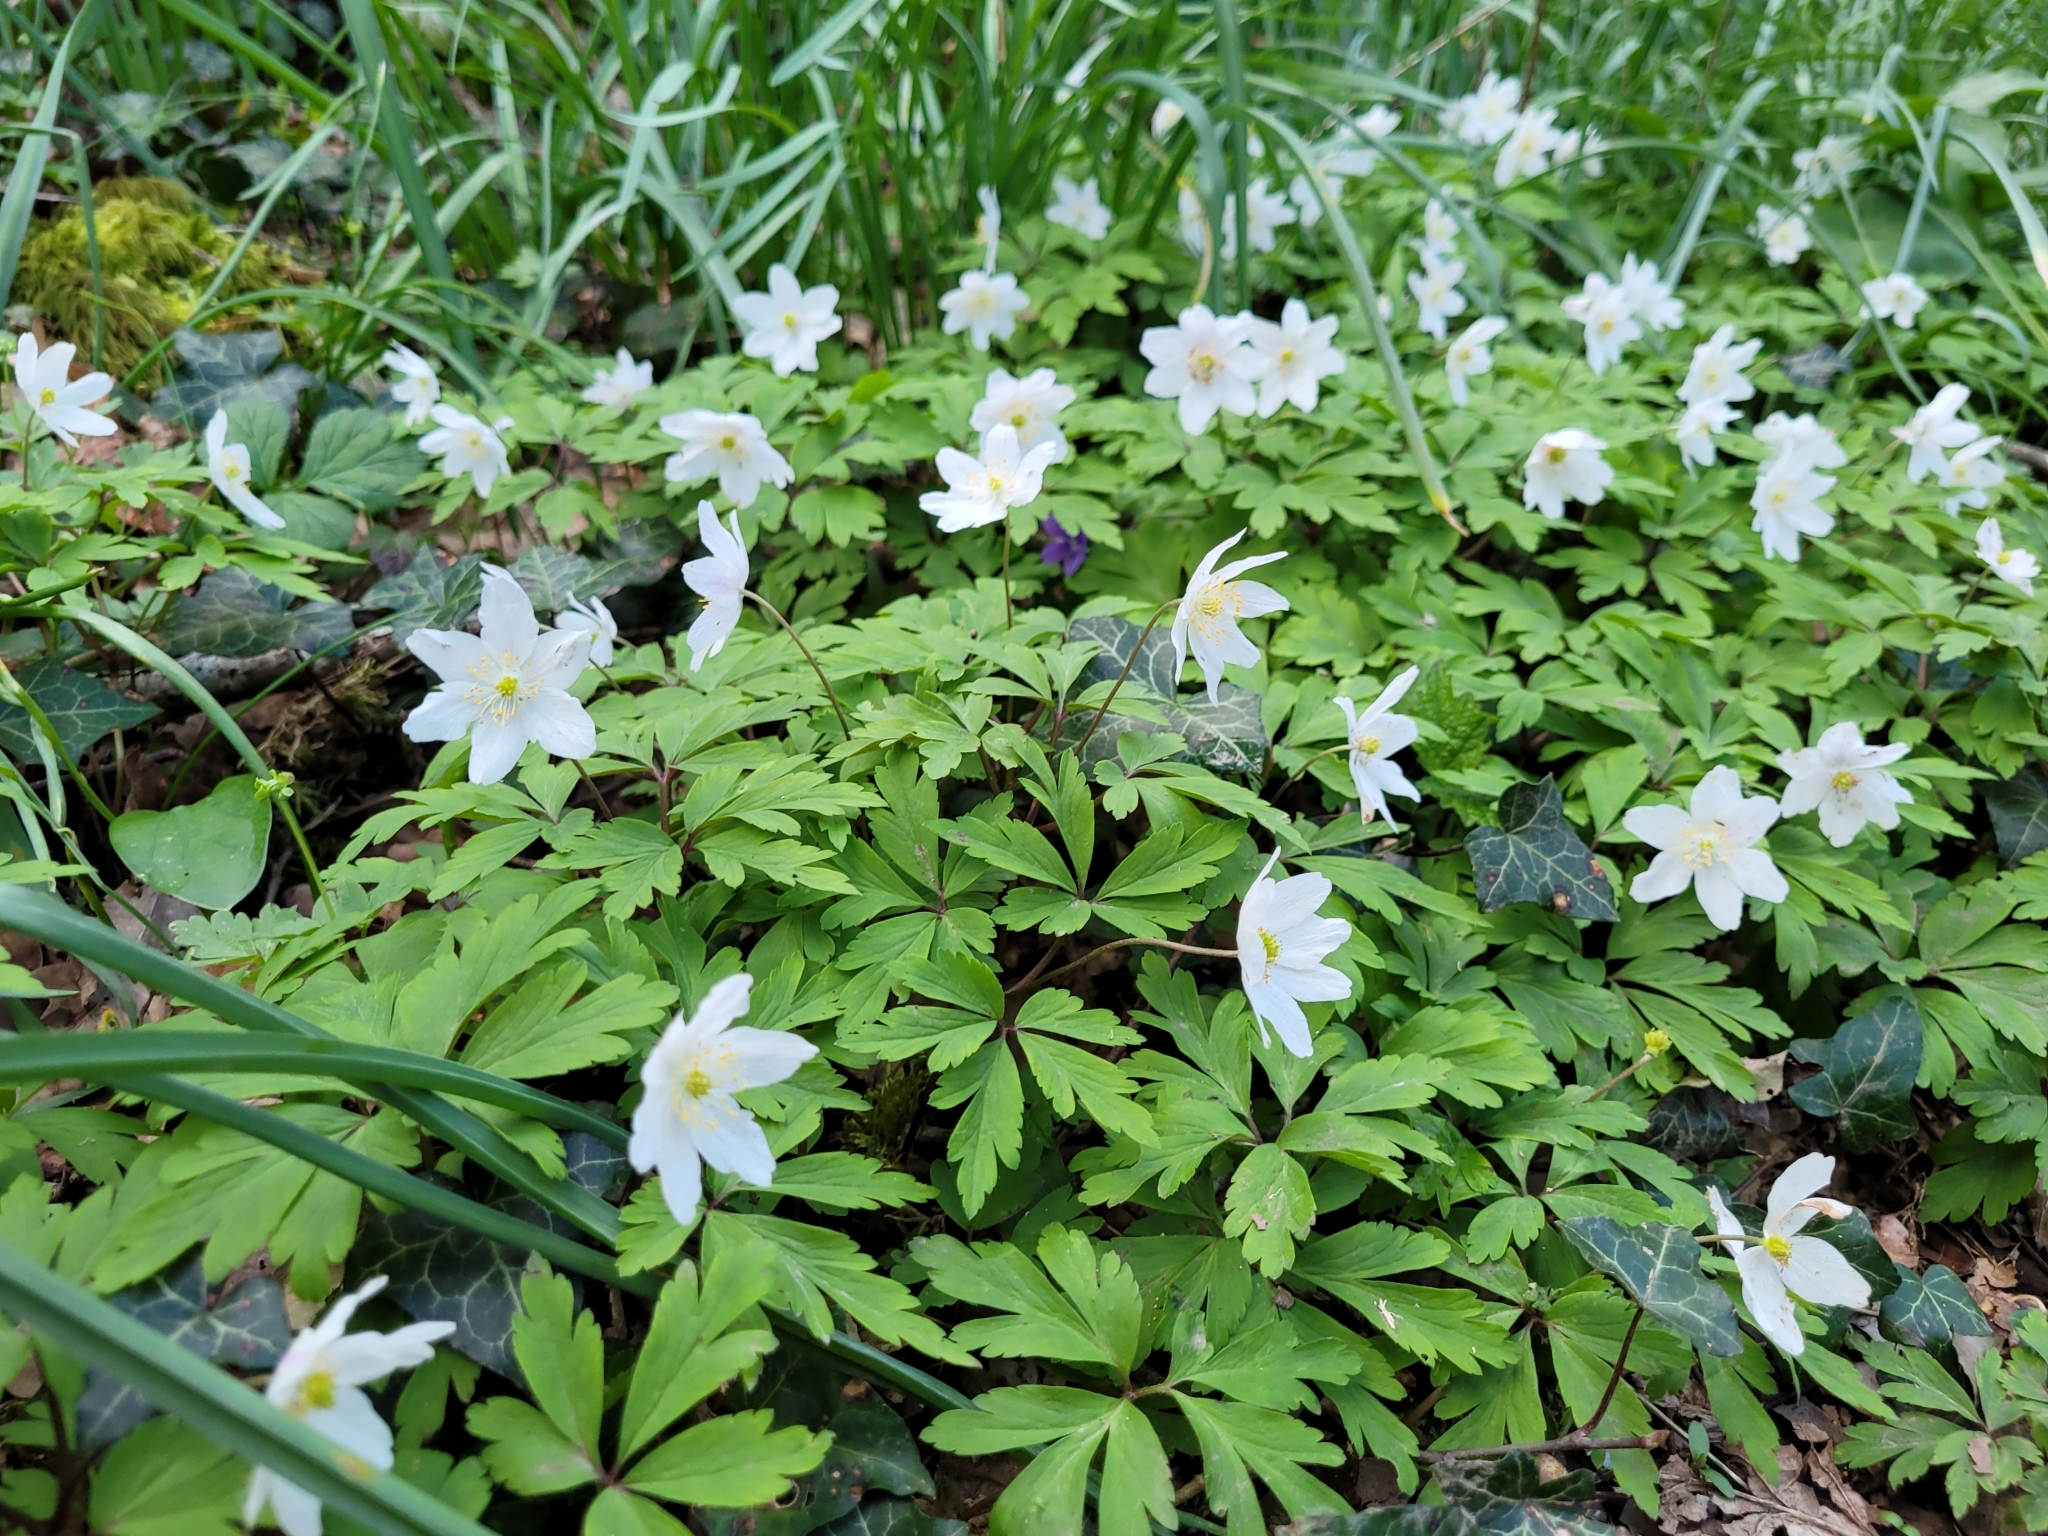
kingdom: Plantae
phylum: Tracheophyta
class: Magnoliopsida
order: Ranunculales
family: Ranunculaceae
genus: Anemone
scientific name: Anemone nemorosa
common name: Wood anemone
